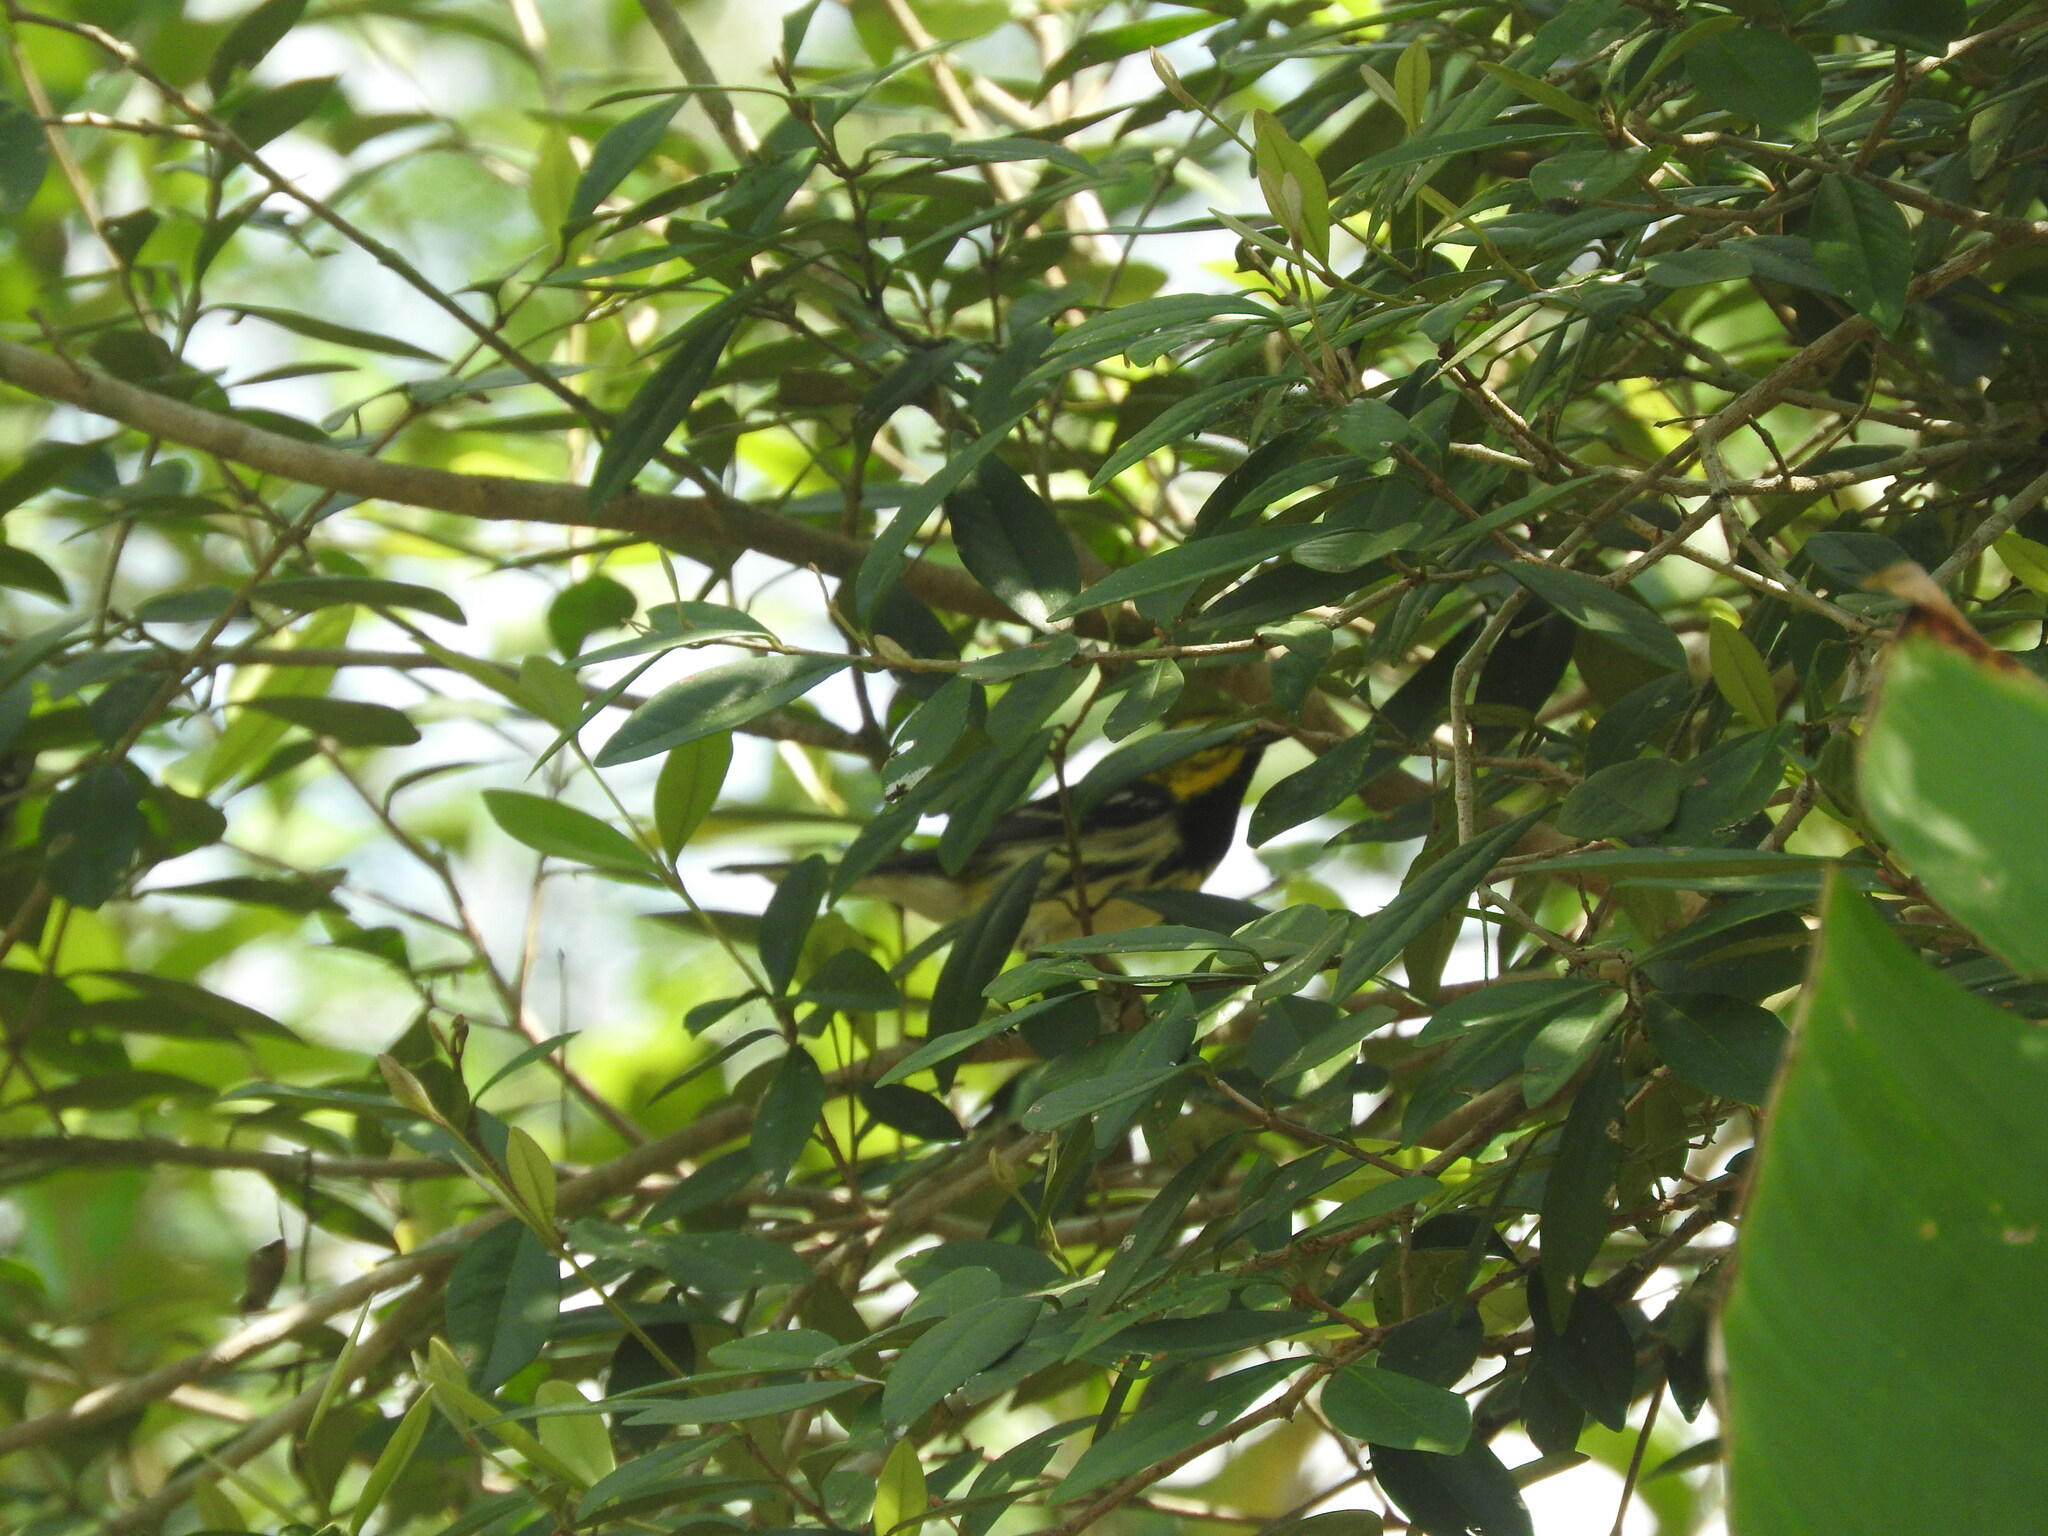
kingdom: Animalia
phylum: Chordata
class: Aves
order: Passeriformes
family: Parulidae
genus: Setophaga
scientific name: Setophaga virens
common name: Black-throated green warbler
